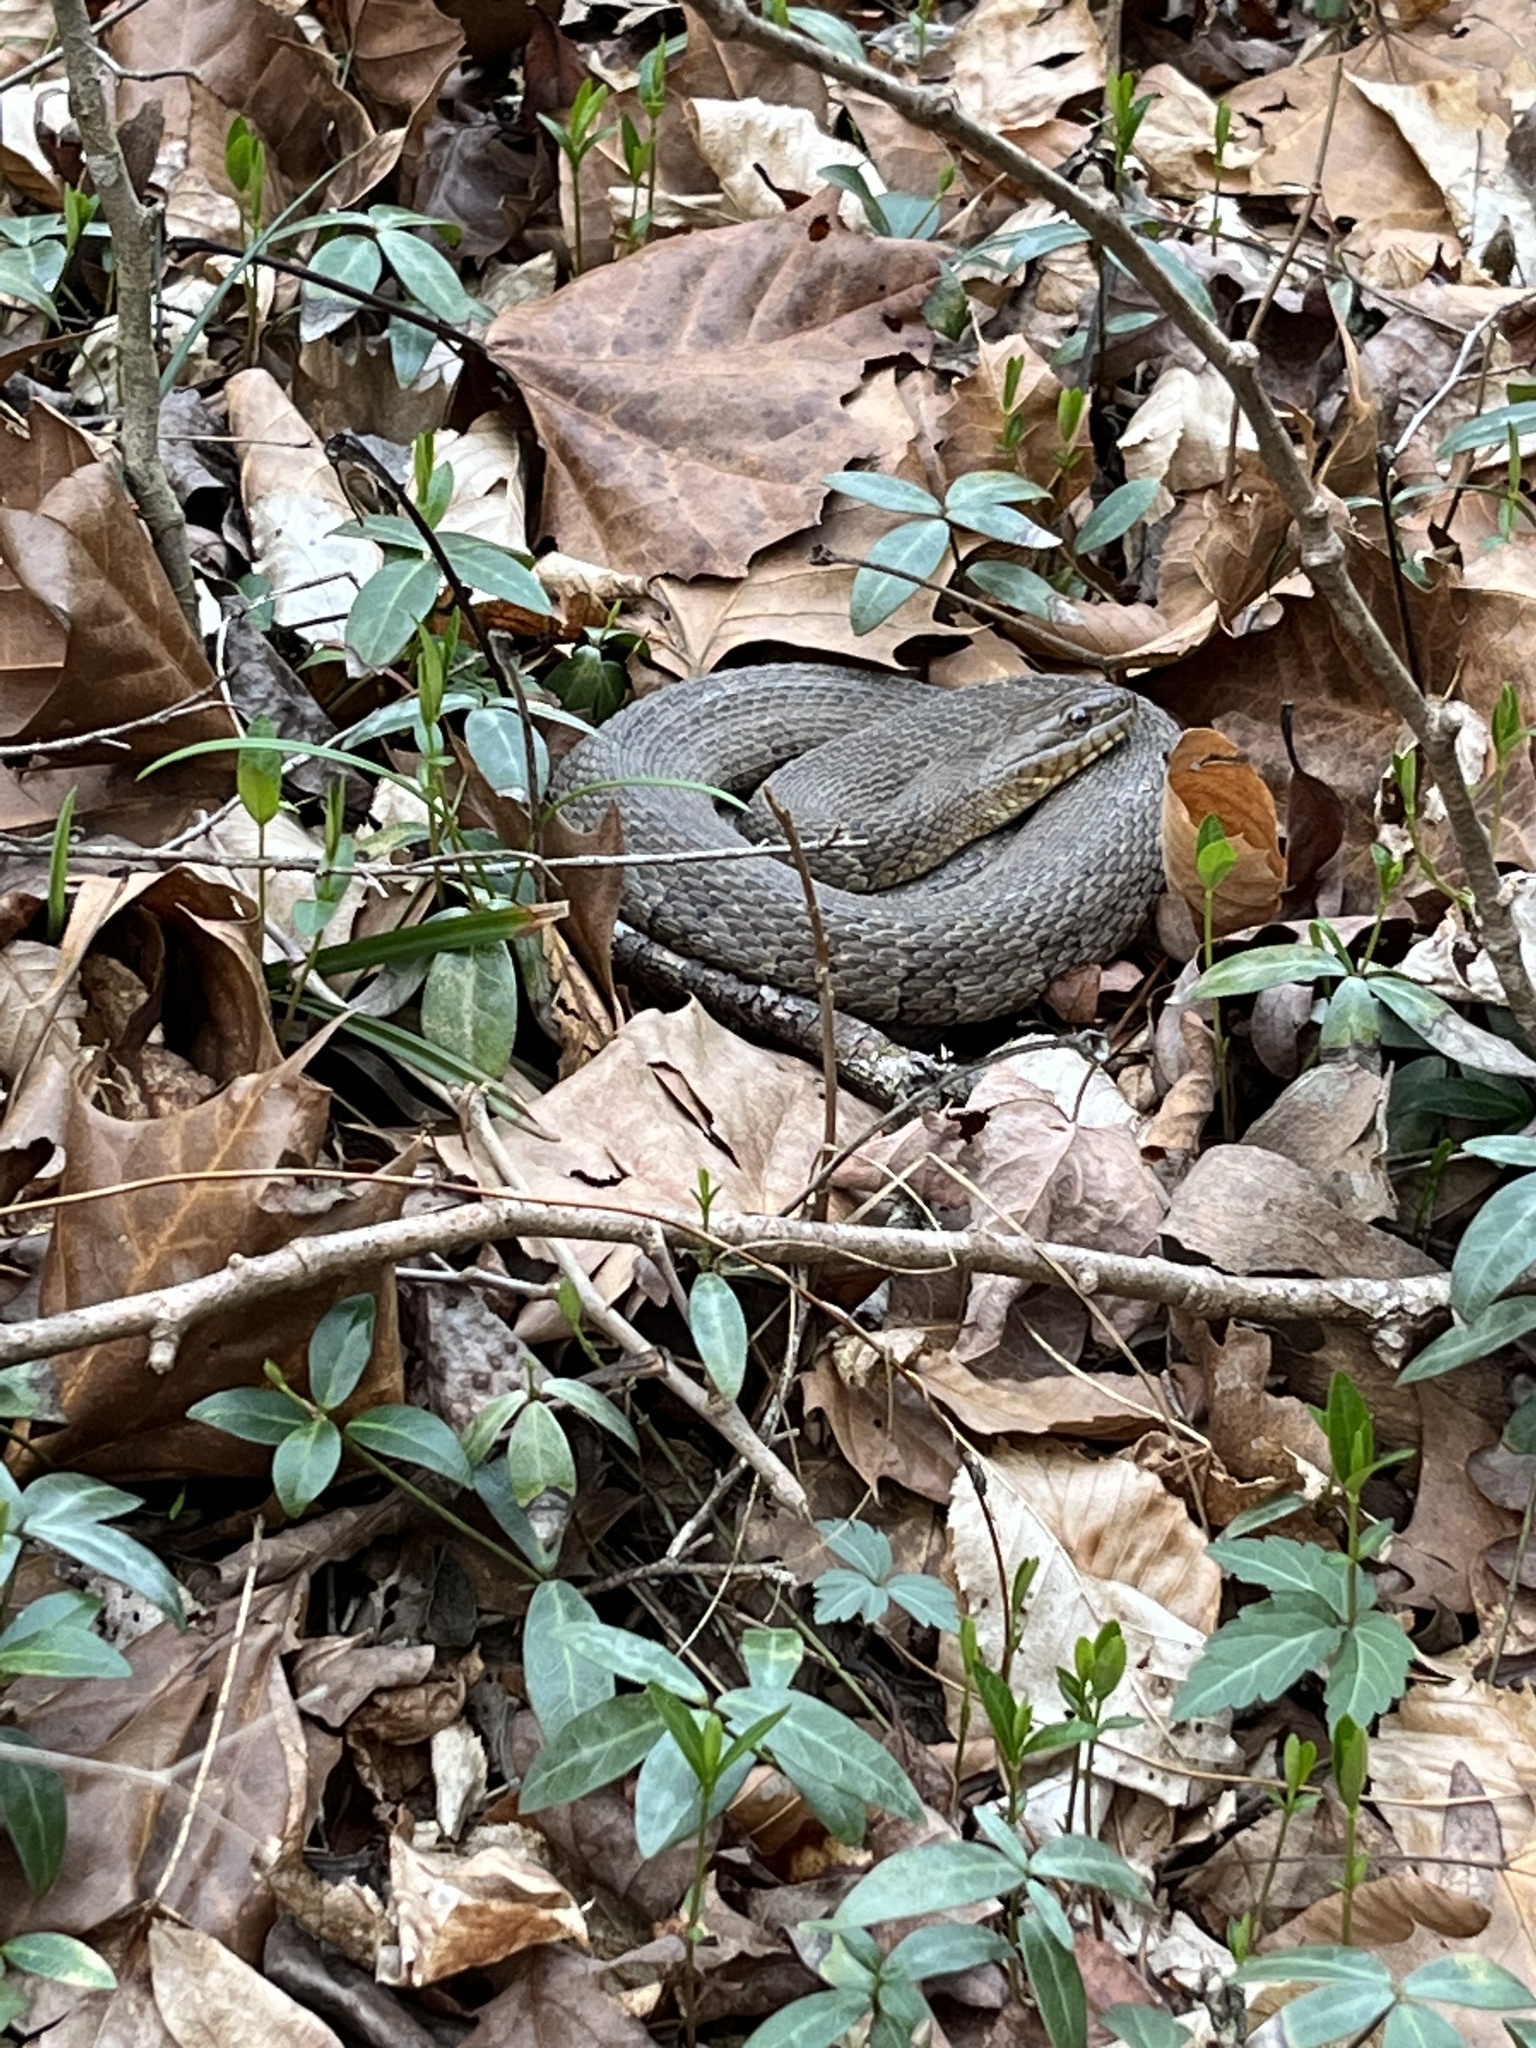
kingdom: Animalia
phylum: Chordata
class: Squamata
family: Colubridae
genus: Nerodia
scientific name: Nerodia sipedon
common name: Northern water snake
